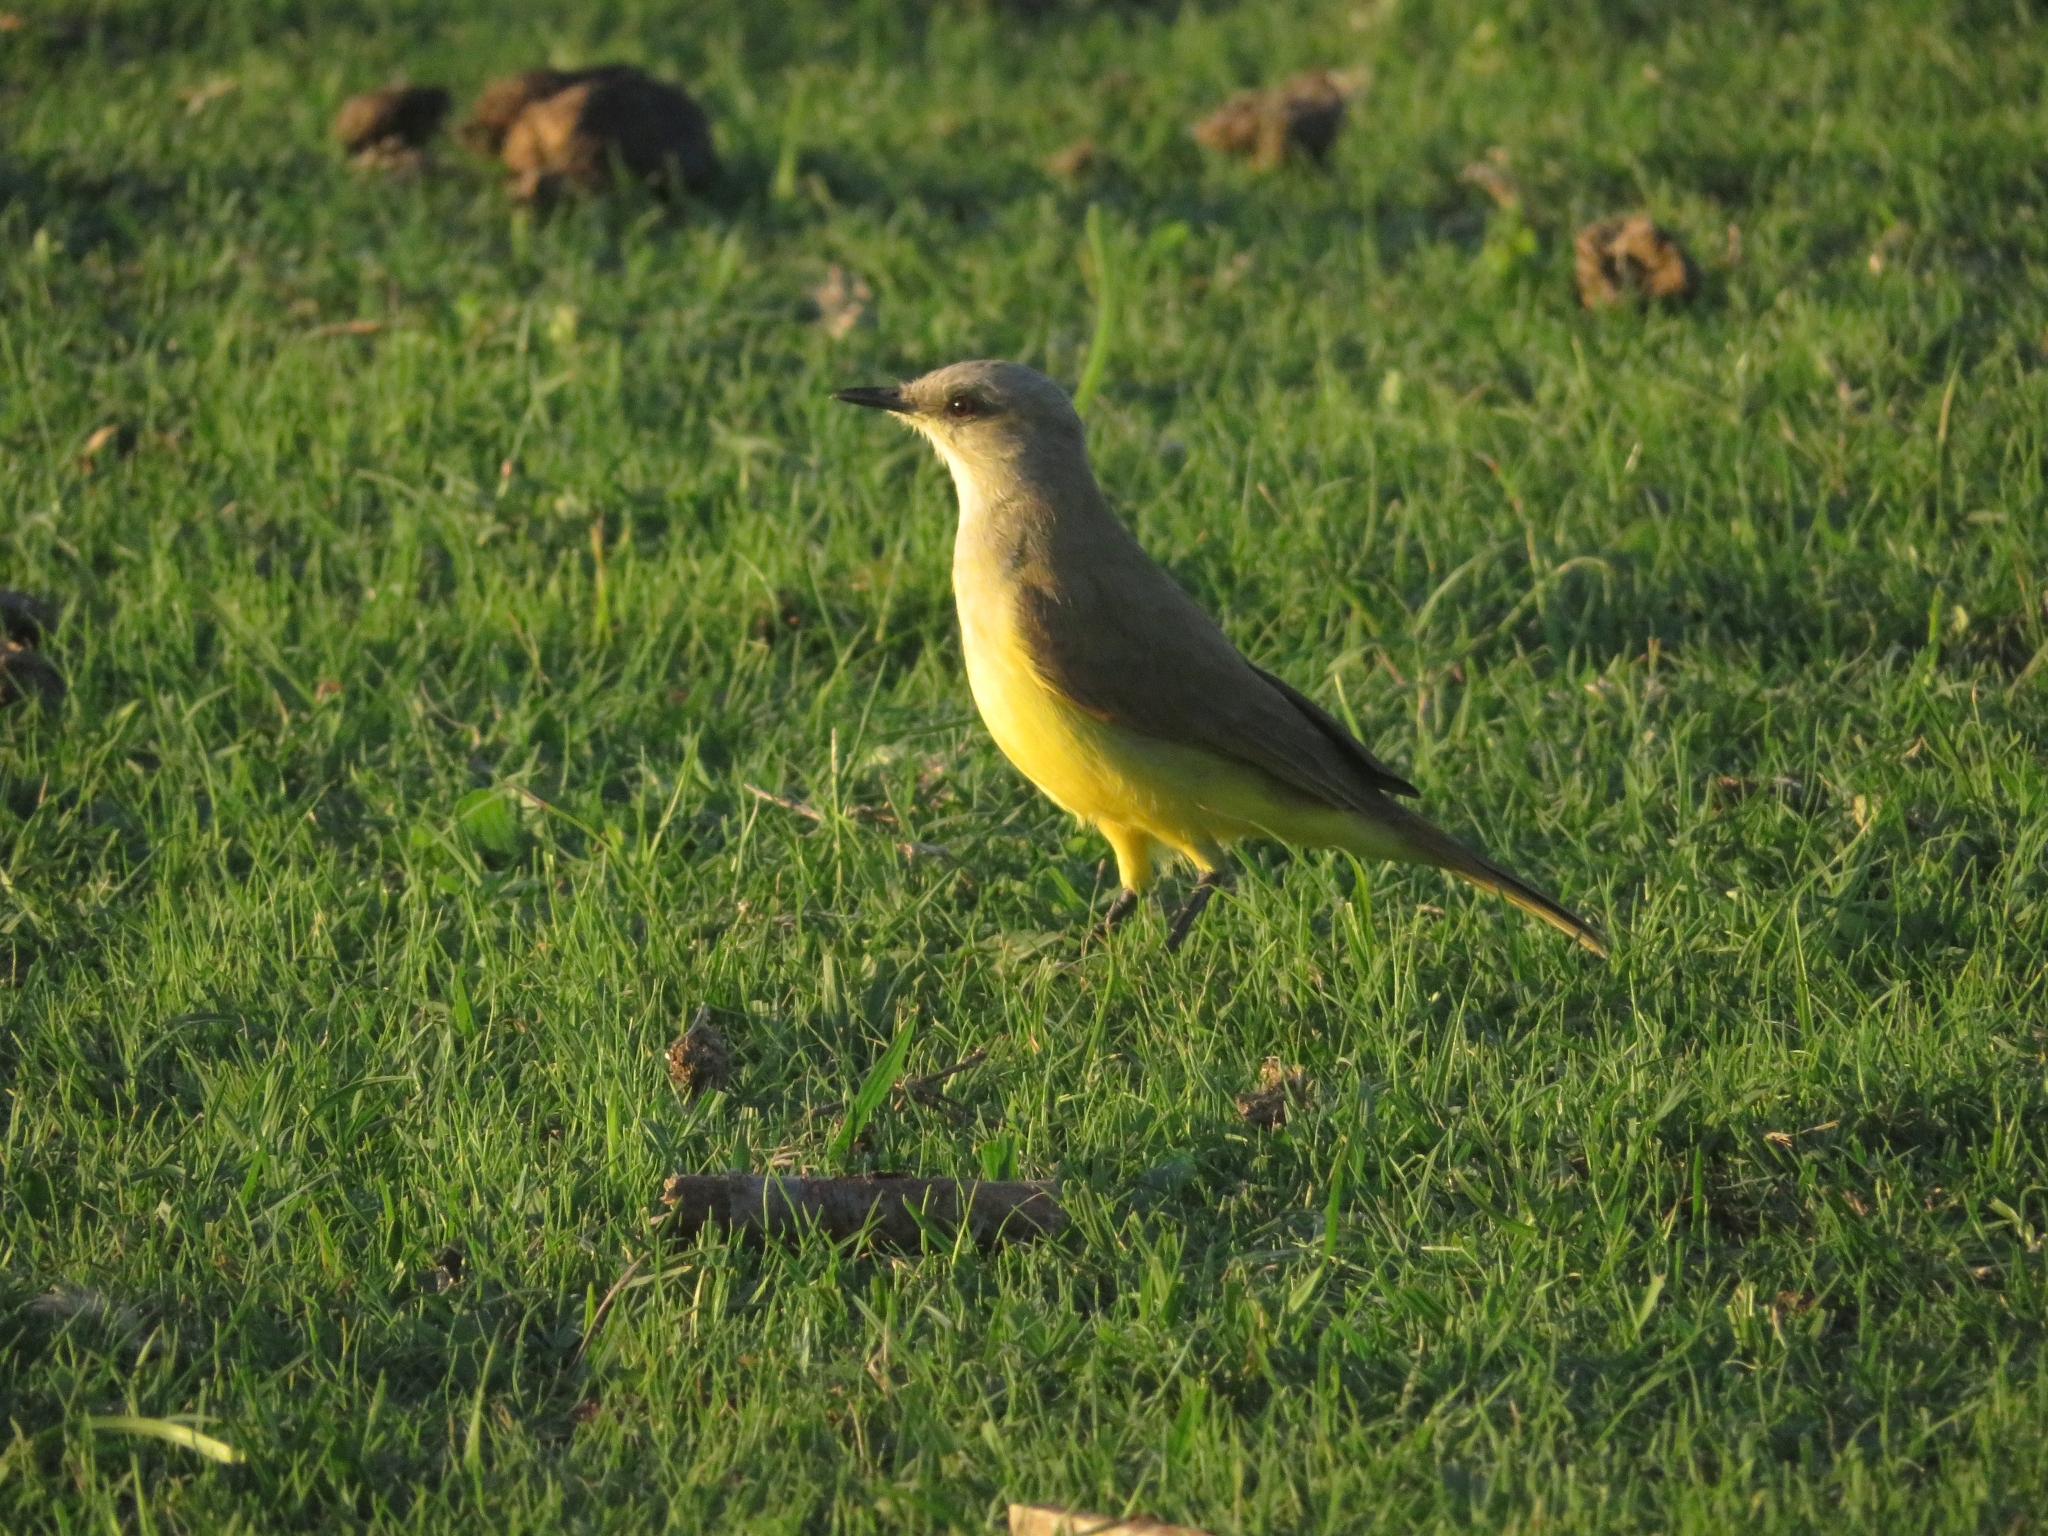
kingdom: Animalia
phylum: Chordata
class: Aves
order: Passeriformes
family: Tyrannidae
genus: Machetornis
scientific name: Machetornis rixosa
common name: Cattle tyrant
